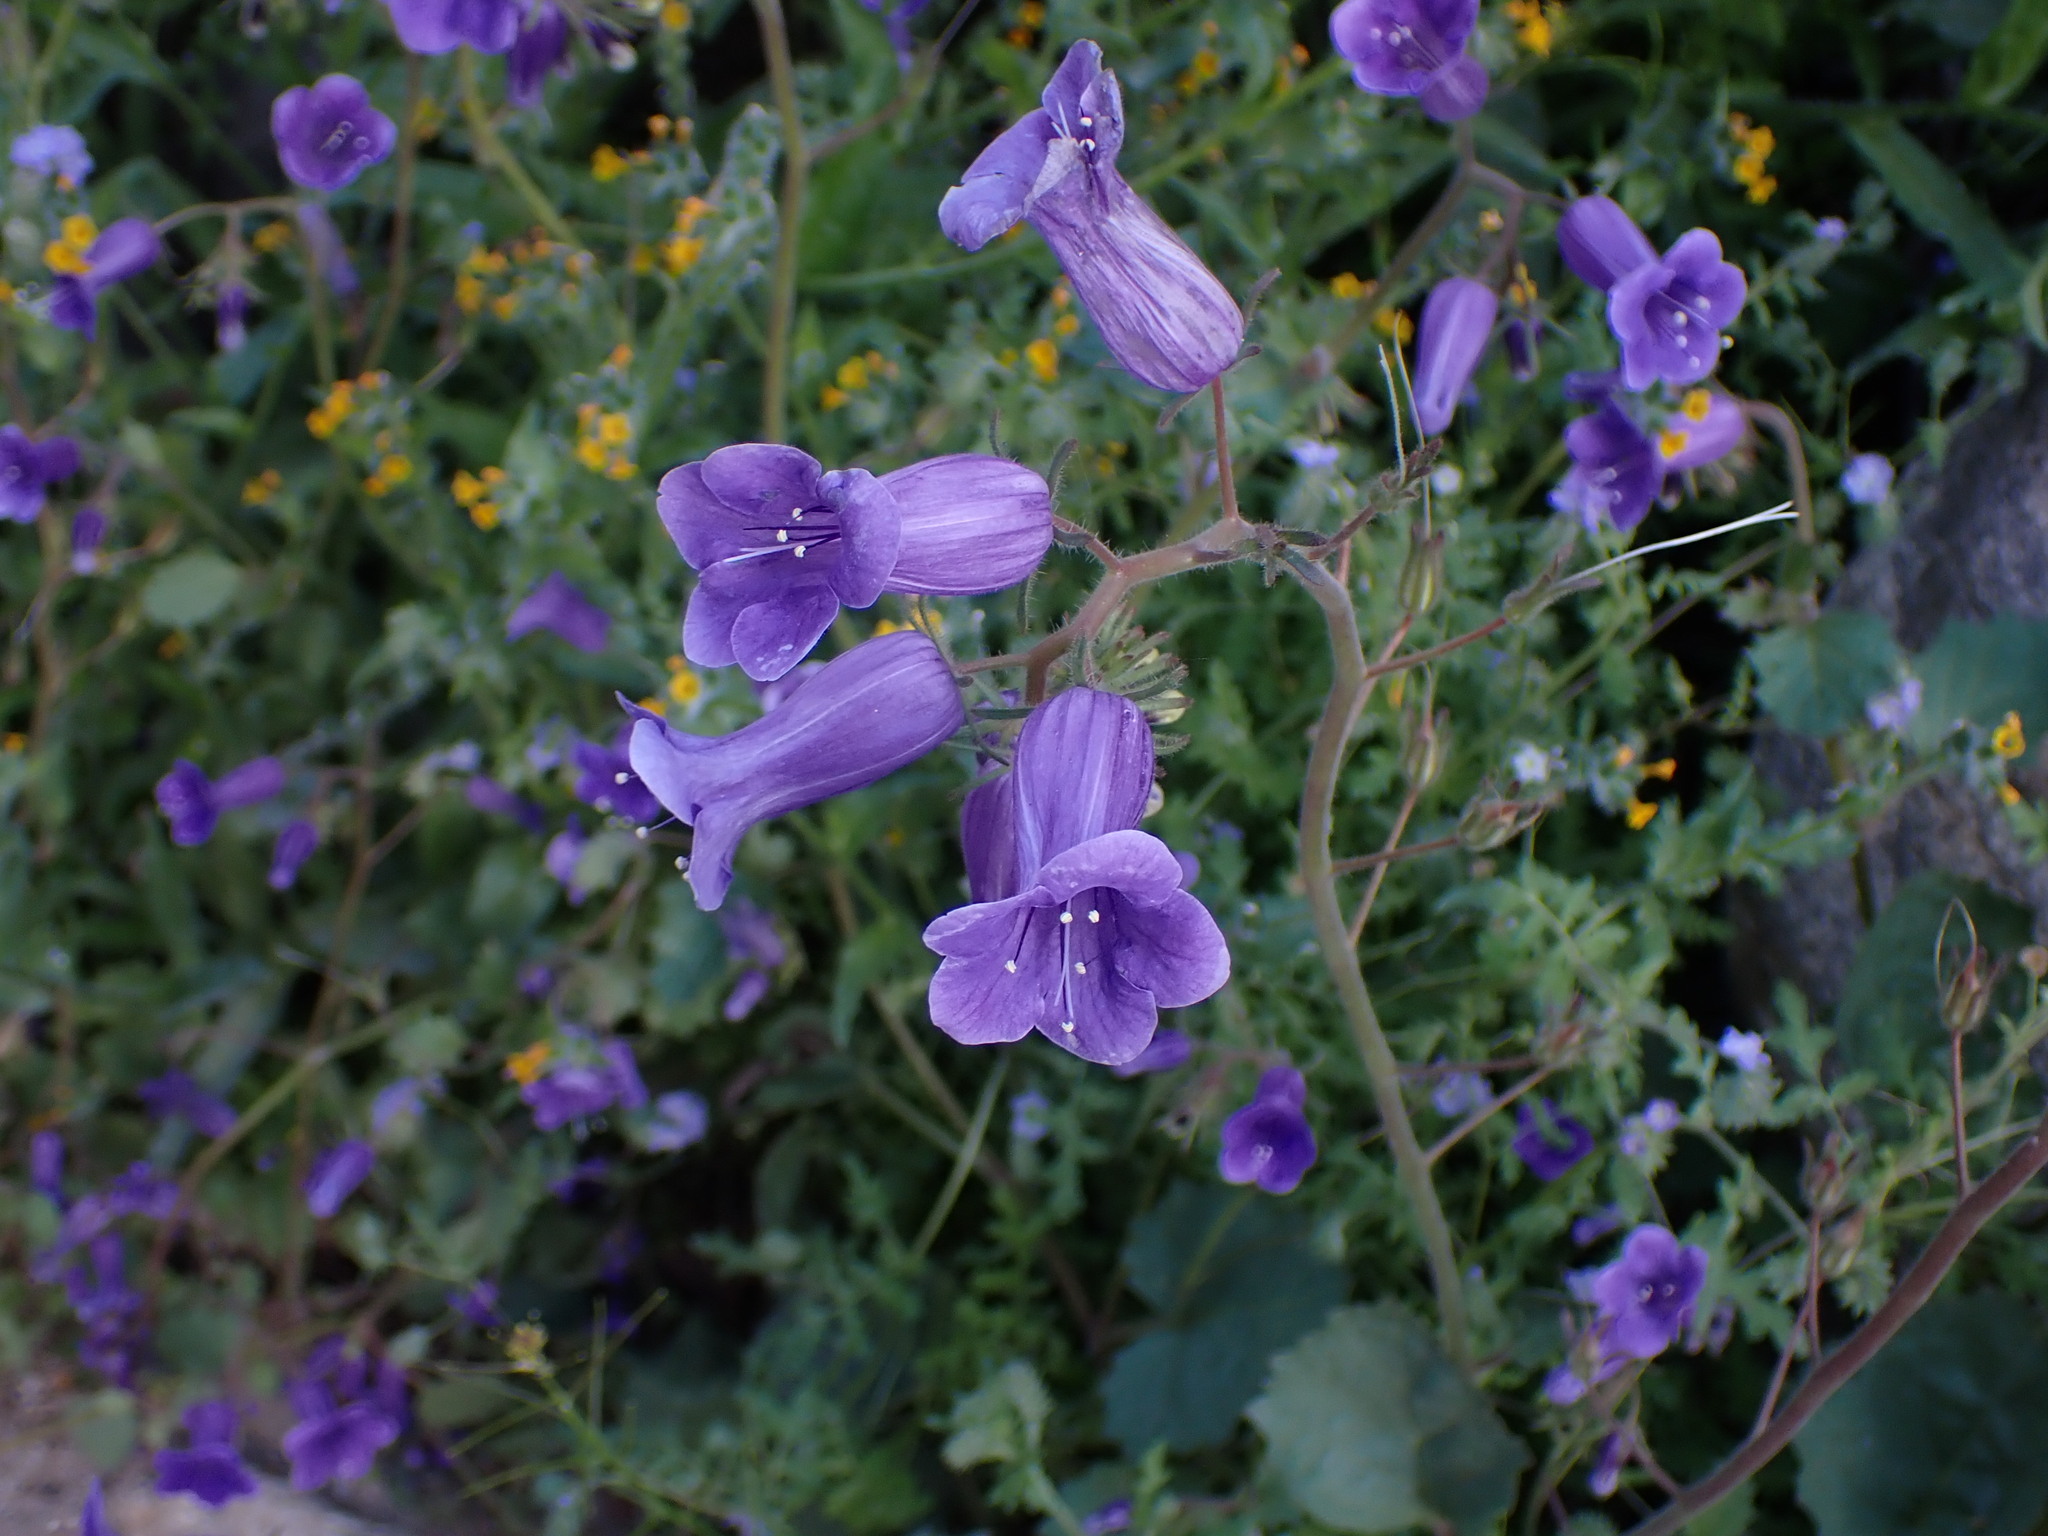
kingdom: Plantae
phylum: Tracheophyta
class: Magnoliopsida
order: Boraginales
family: Hydrophyllaceae
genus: Phacelia
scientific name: Phacelia minor
